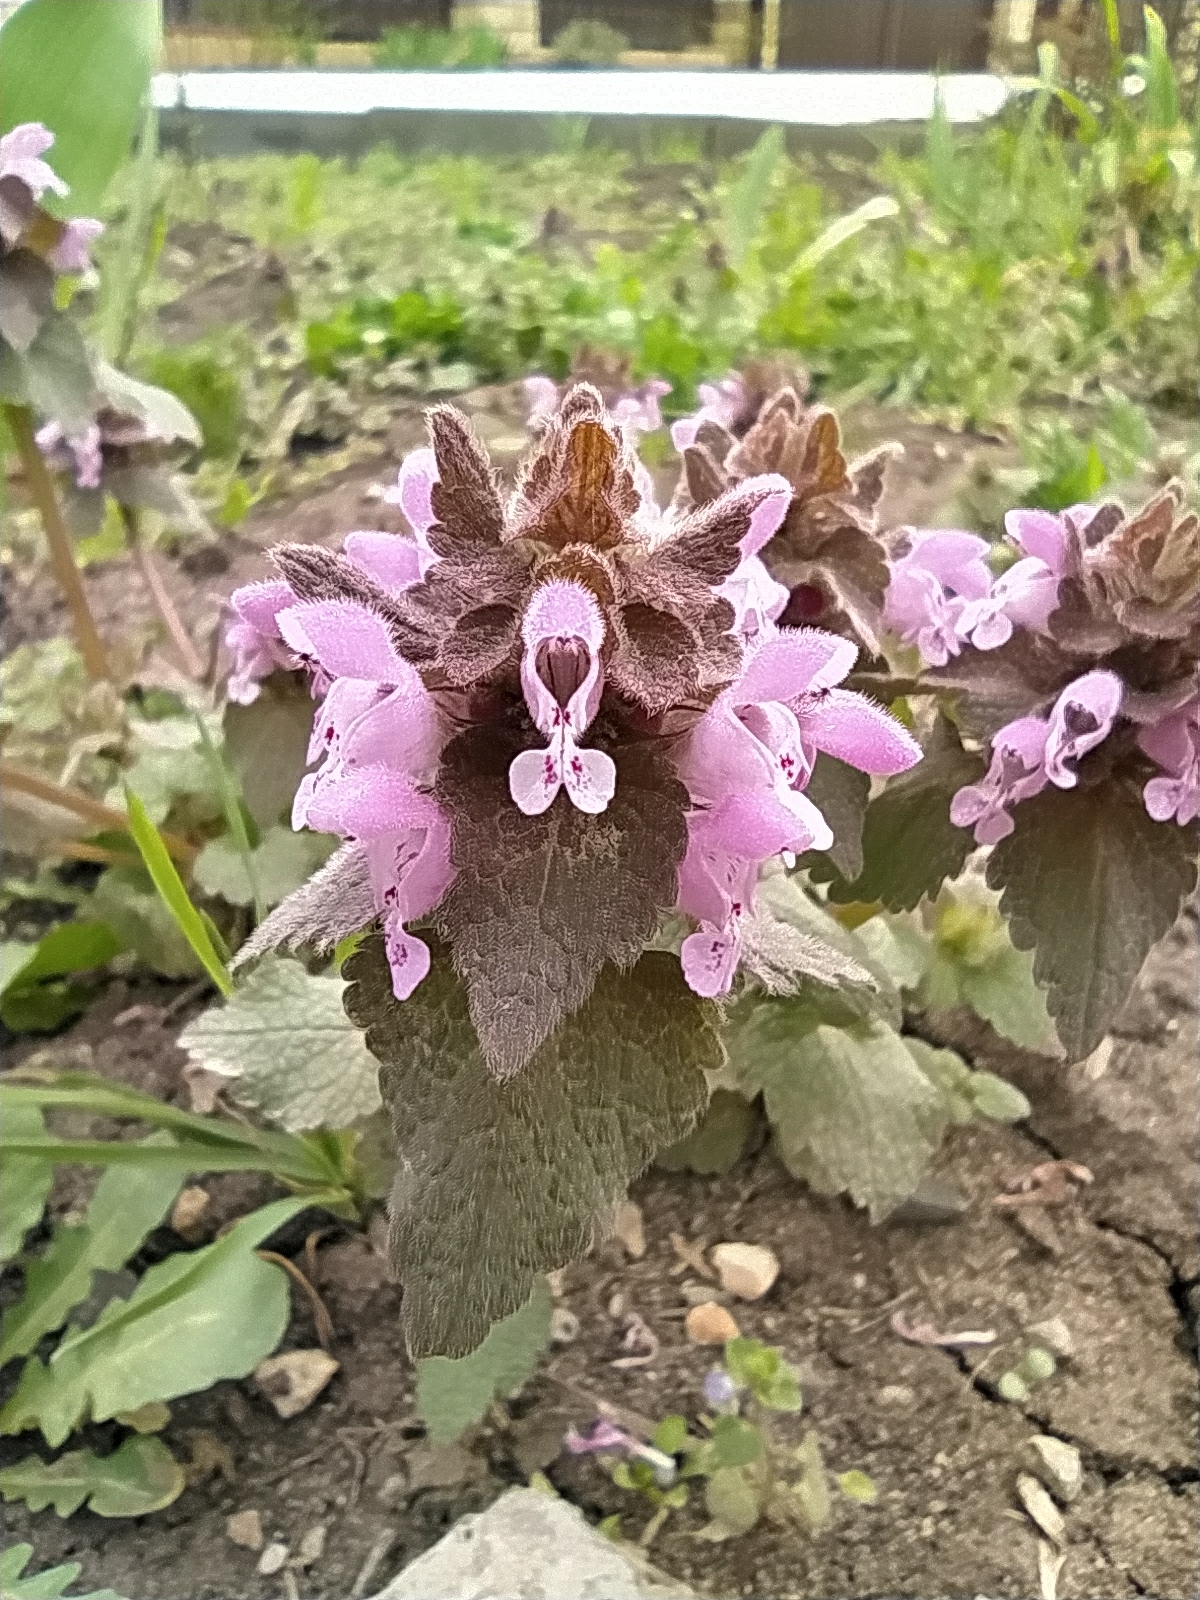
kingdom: Plantae
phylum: Tracheophyta
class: Magnoliopsida
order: Lamiales
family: Lamiaceae
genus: Lamium
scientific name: Lamium purpureum
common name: Red dead-nettle
